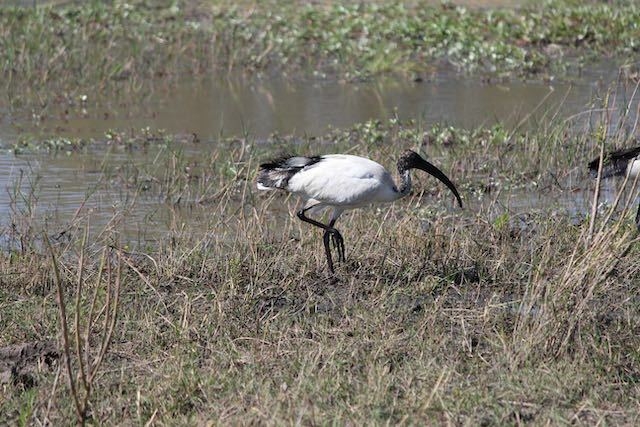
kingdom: Animalia
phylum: Chordata
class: Aves
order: Pelecaniformes
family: Threskiornithidae
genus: Threskiornis
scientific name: Threskiornis aethiopicus
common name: Sacred ibis
